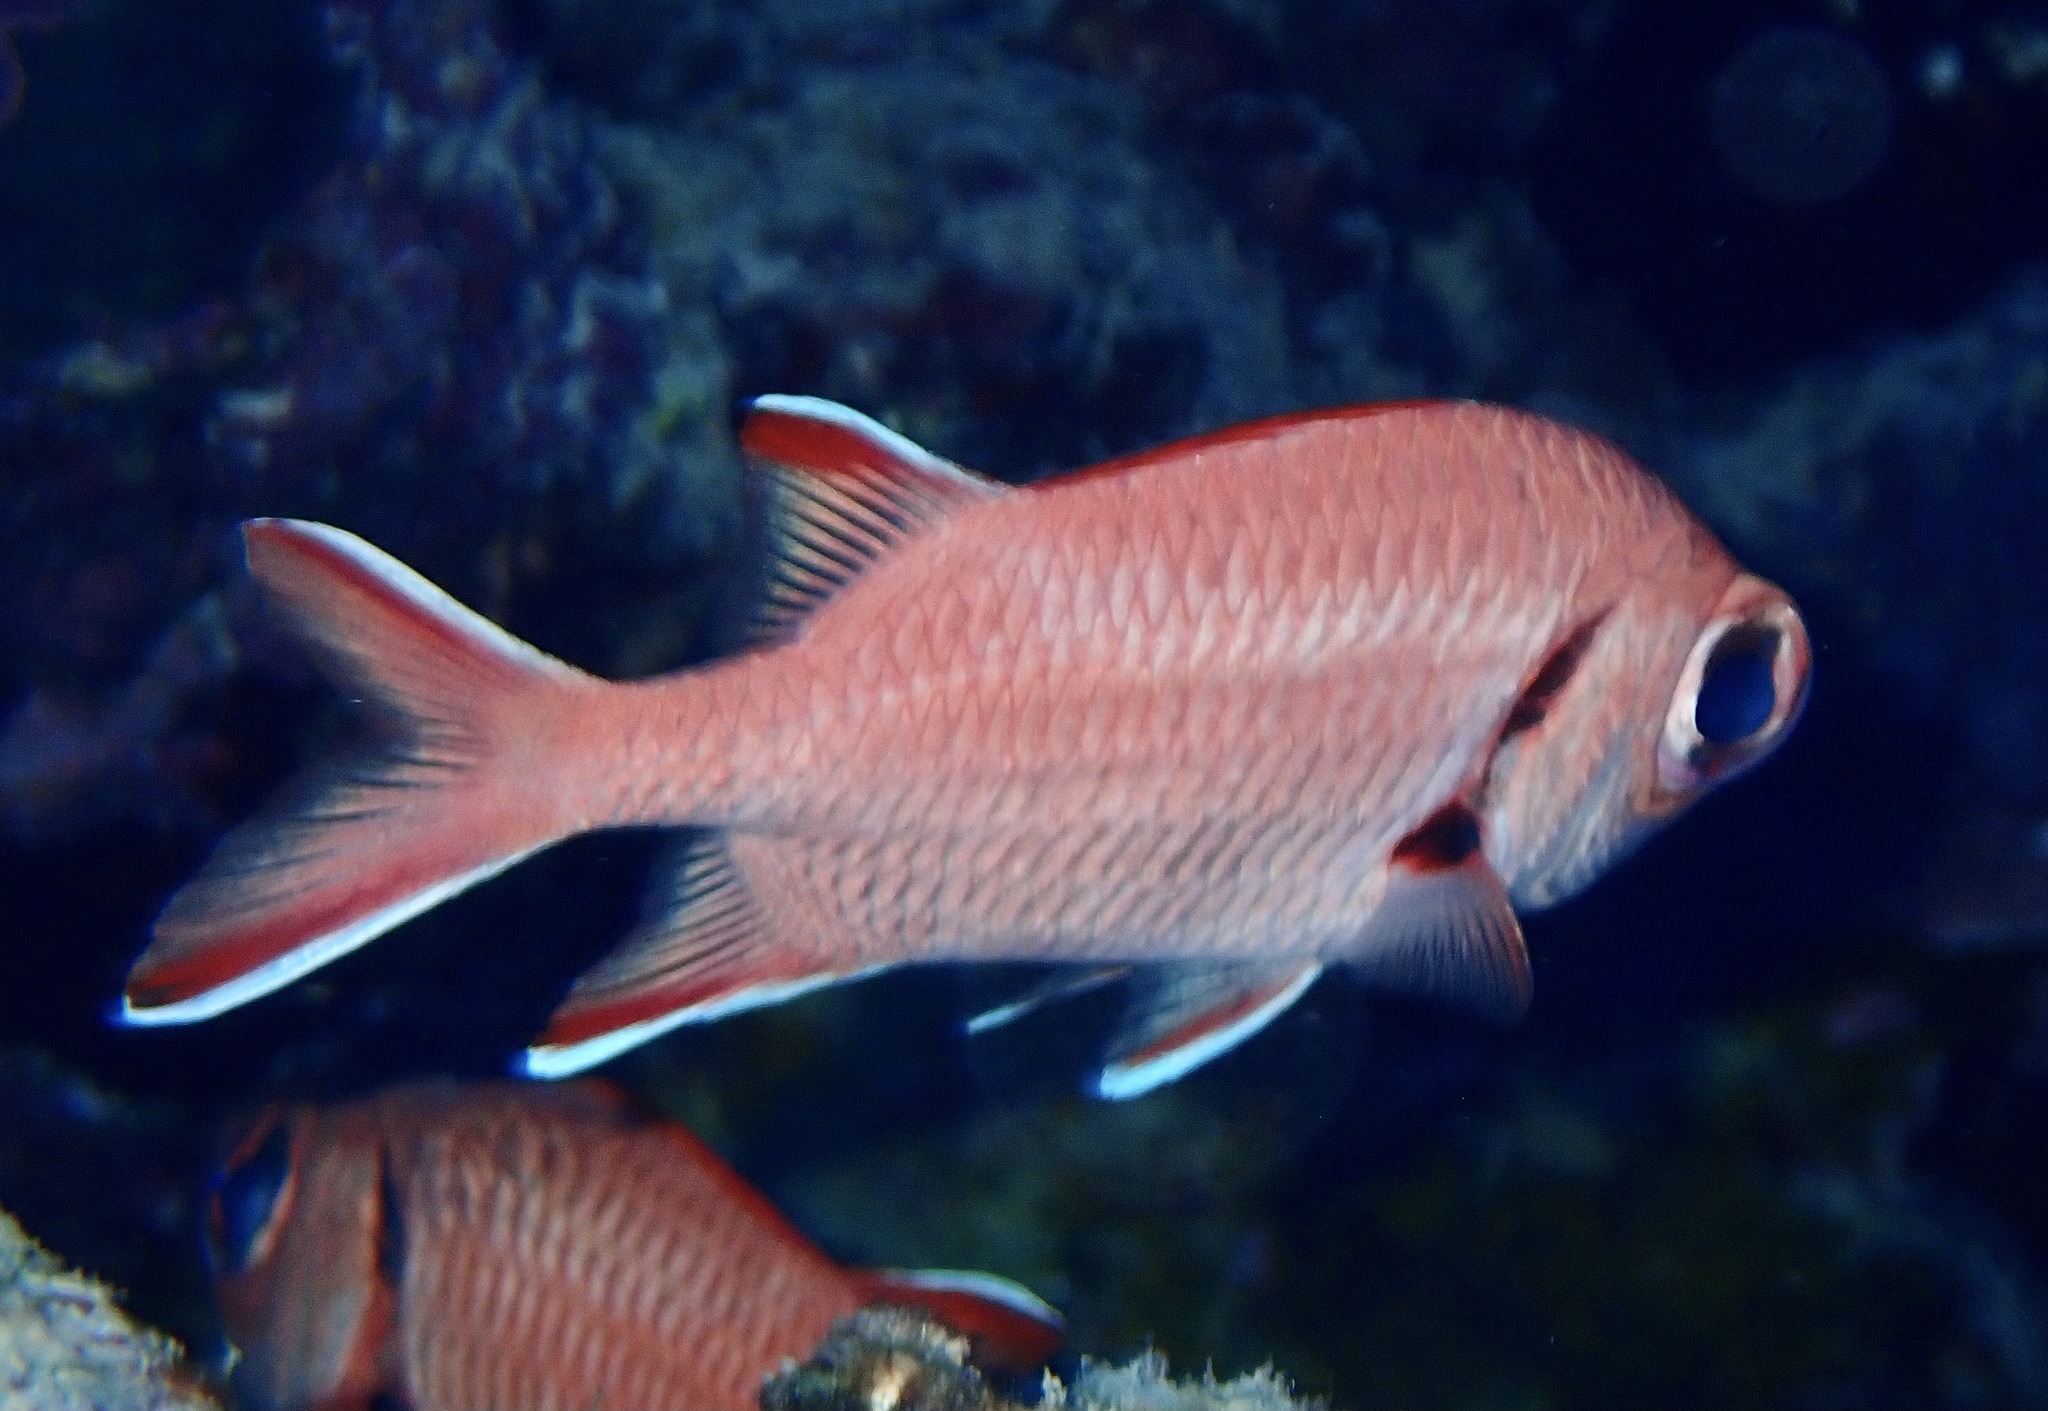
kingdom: Animalia
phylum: Chordata
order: Beryciformes
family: Holocentridae
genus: Myripristis
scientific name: Myripristis murdjan
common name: Big-eye soldierfish
